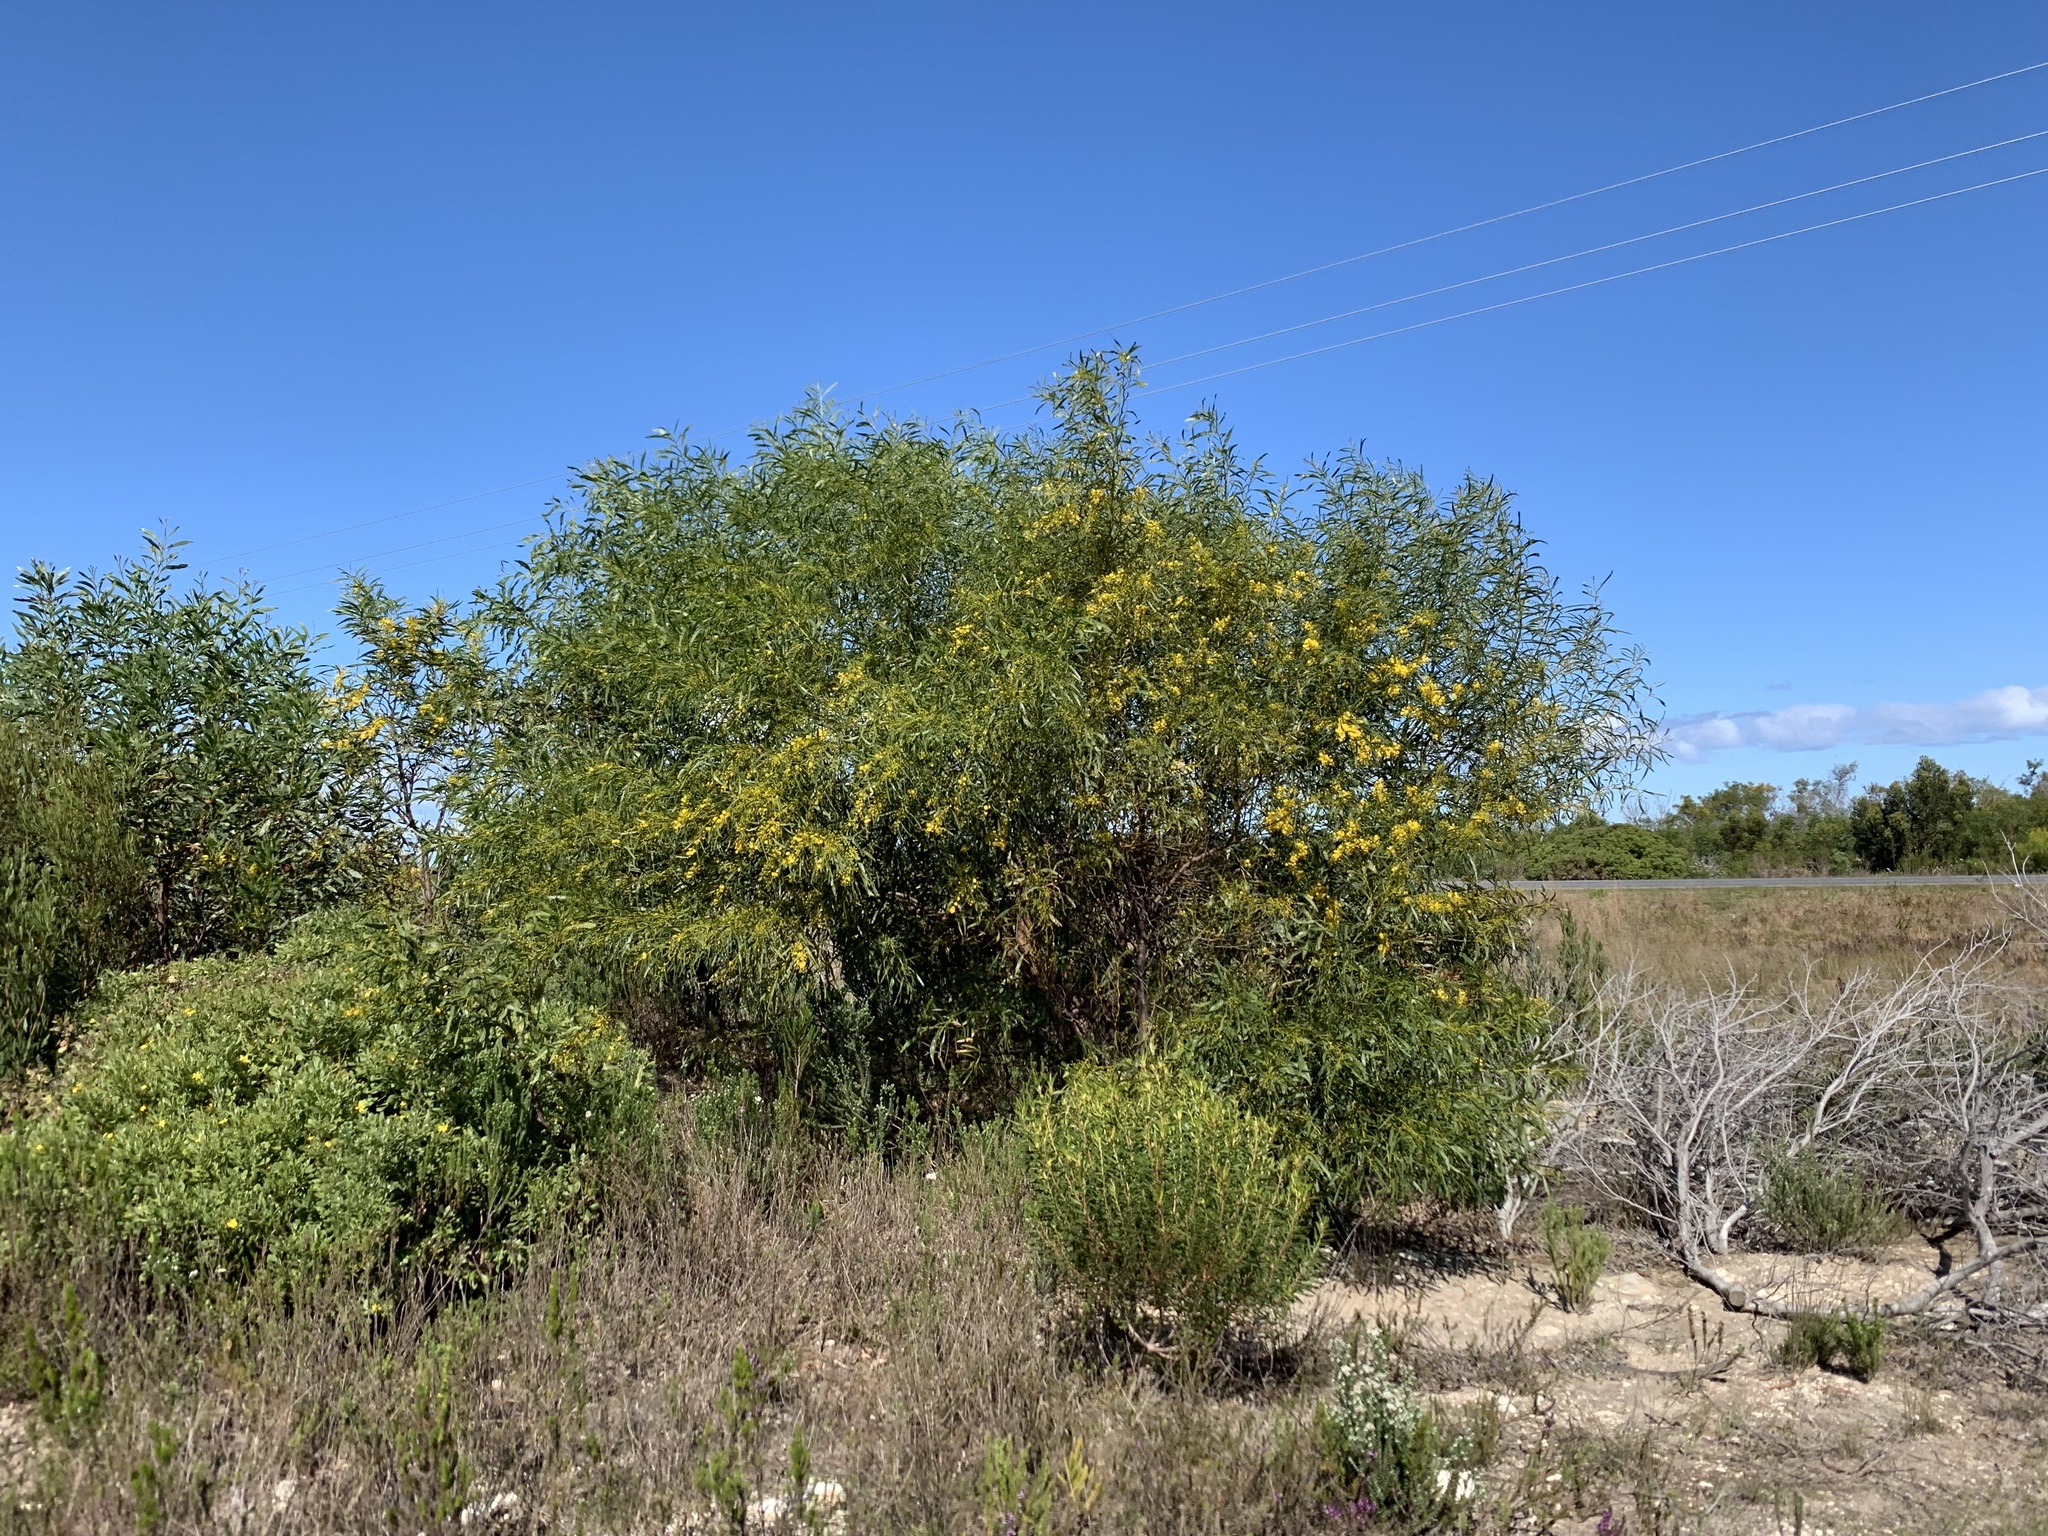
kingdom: Plantae
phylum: Tracheophyta
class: Magnoliopsida
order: Fabales
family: Fabaceae
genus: Acacia
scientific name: Acacia saligna
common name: Orange wattle
